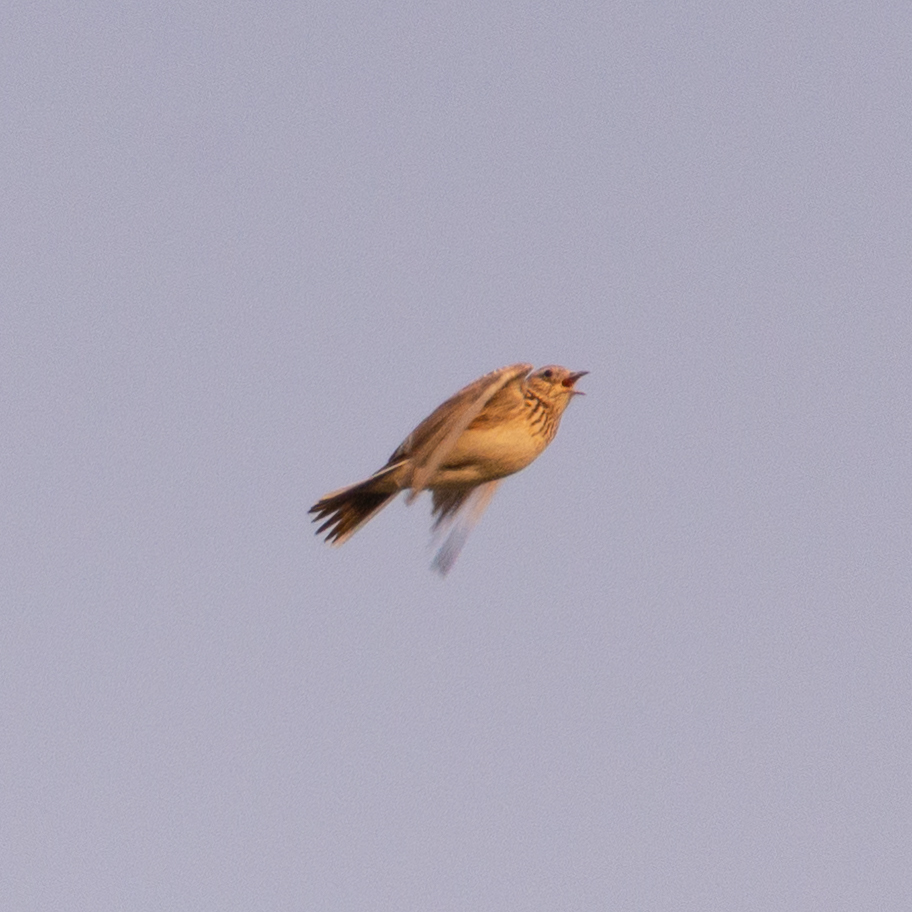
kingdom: Animalia
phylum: Chordata
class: Aves
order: Passeriformes
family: Alaudidae
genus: Alauda
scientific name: Alauda arvensis
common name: Eurasian skylark
